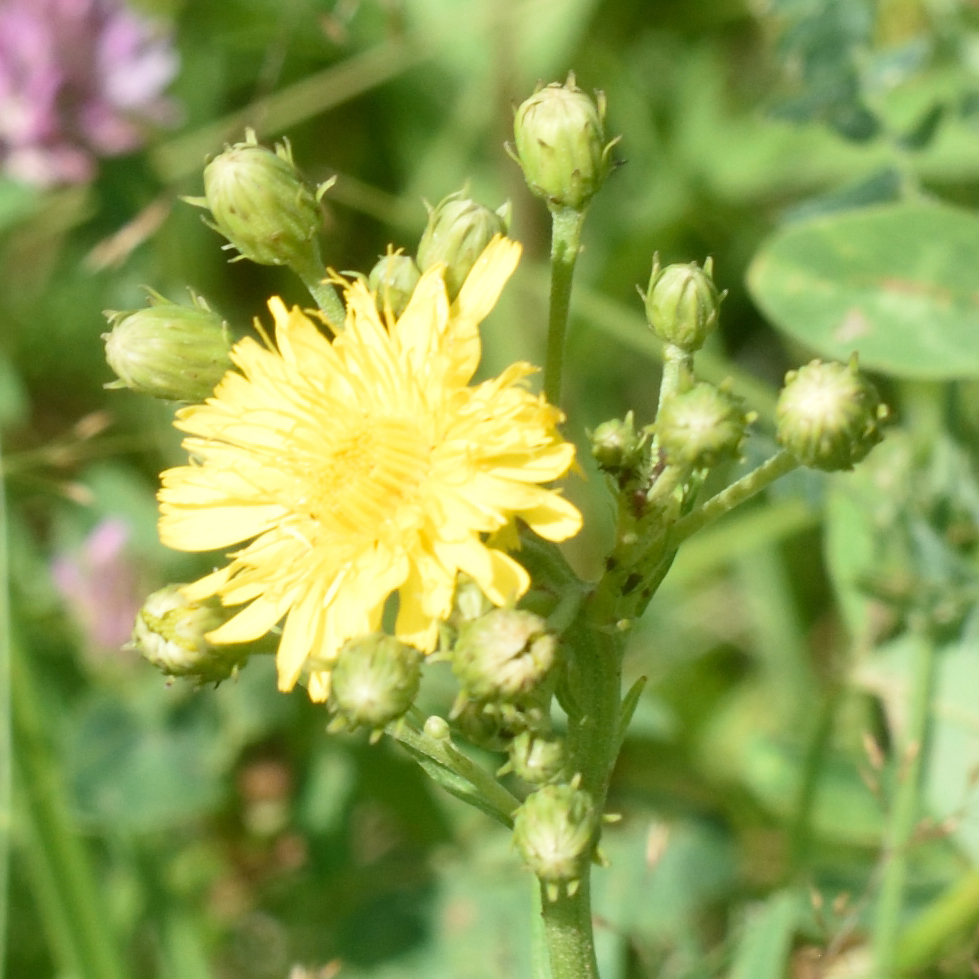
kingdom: Plantae
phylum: Tracheophyta
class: Magnoliopsida
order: Asterales
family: Asteraceae
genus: Hieracium
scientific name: Hieracium umbellatum
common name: Northern hawkweed
